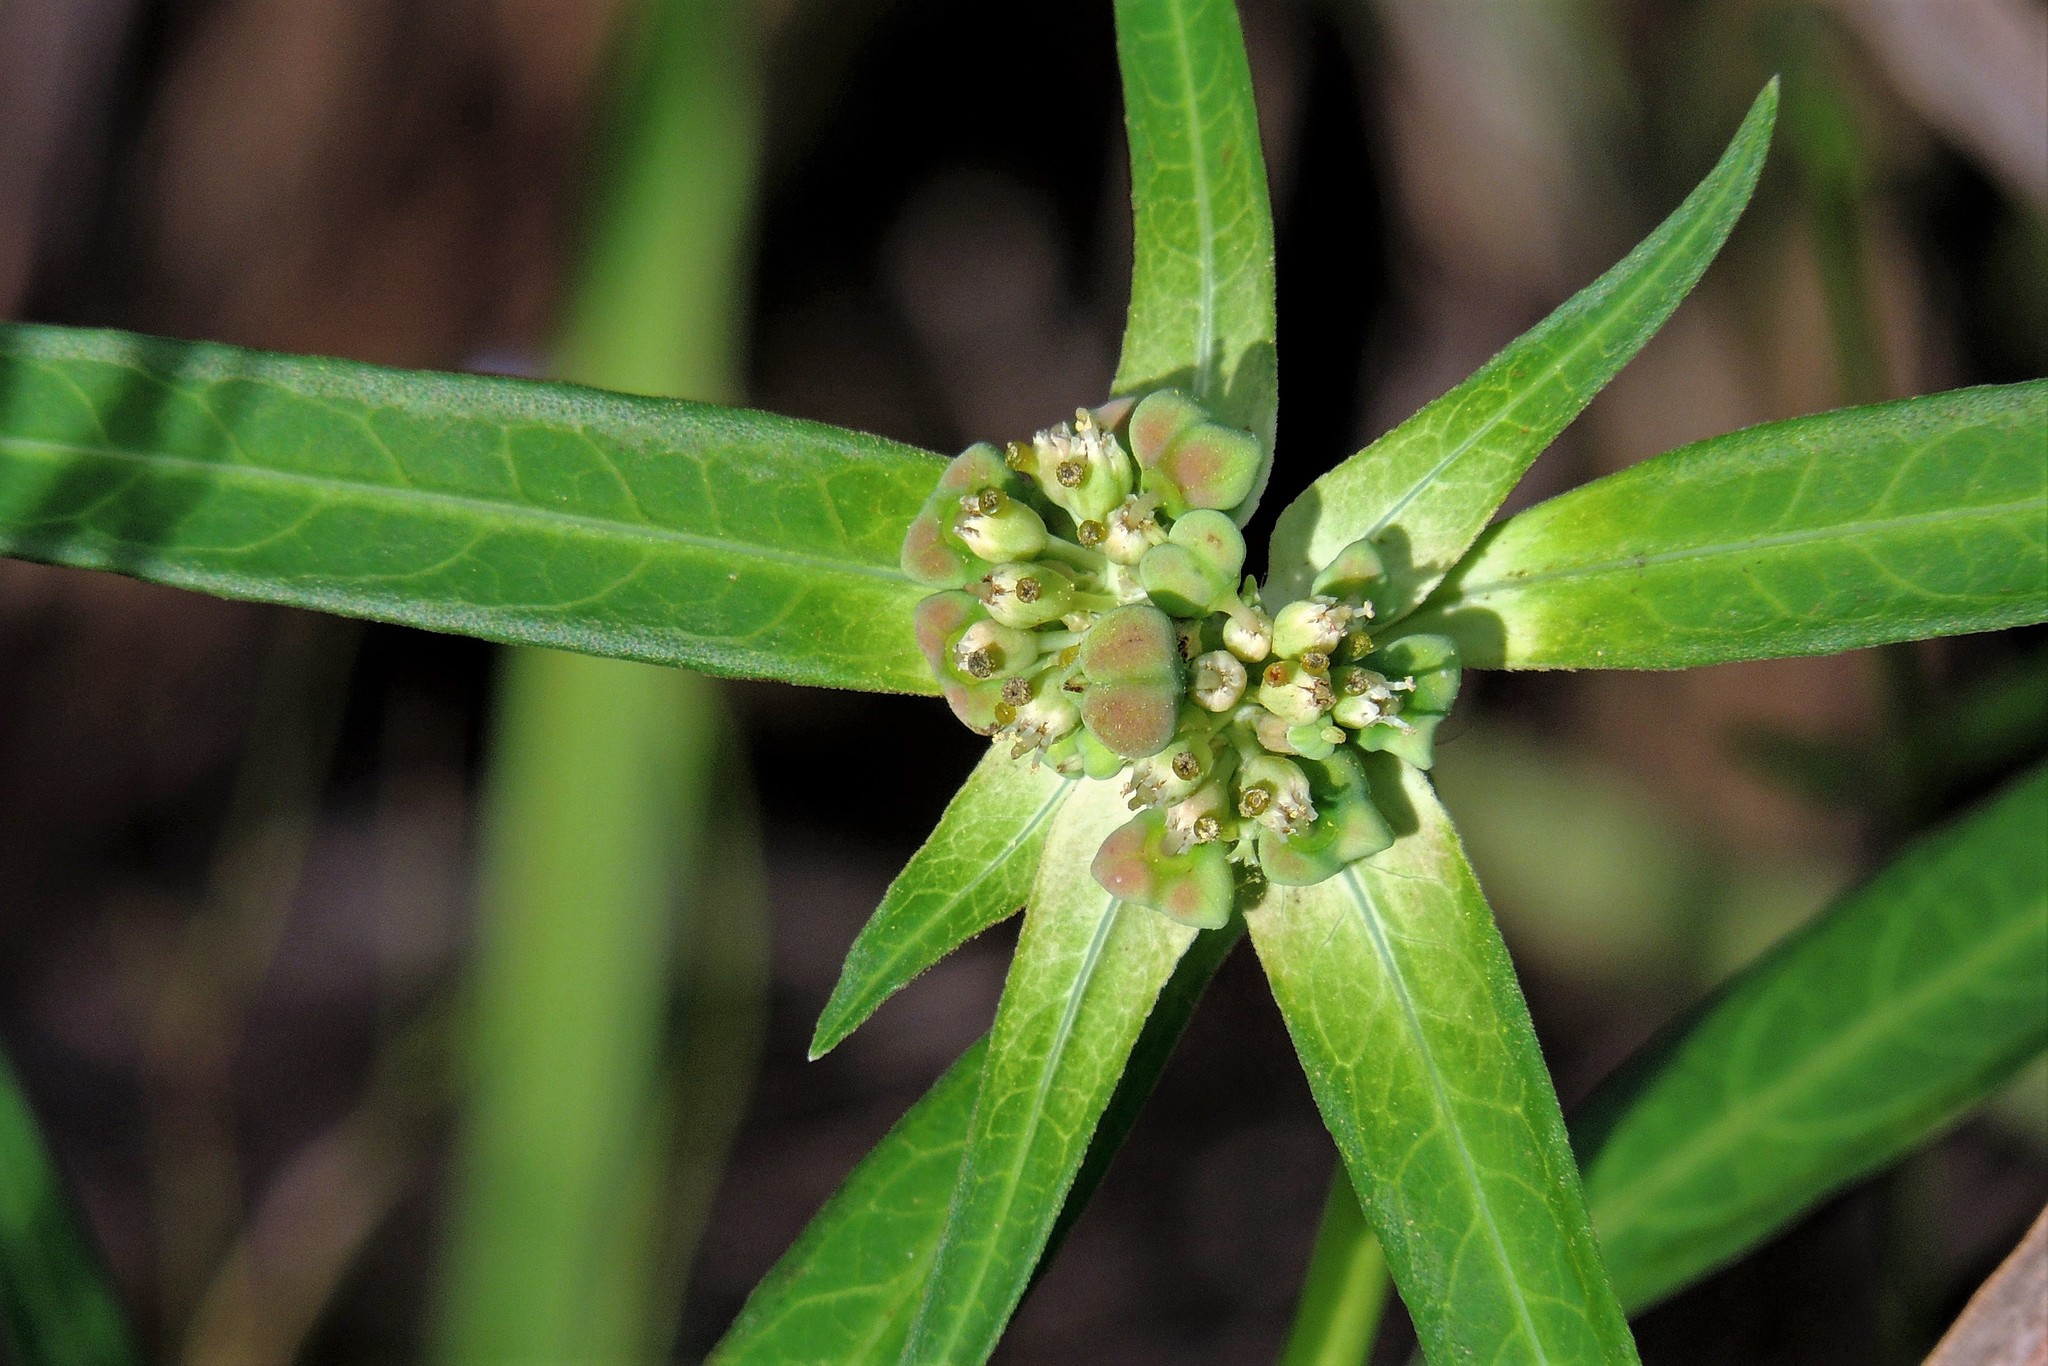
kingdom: Plantae
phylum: Tracheophyta
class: Magnoliopsida
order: Malpighiales
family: Euphorbiaceae
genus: Euphorbia
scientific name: Euphorbia heterophylla
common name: Mexican fireplant
